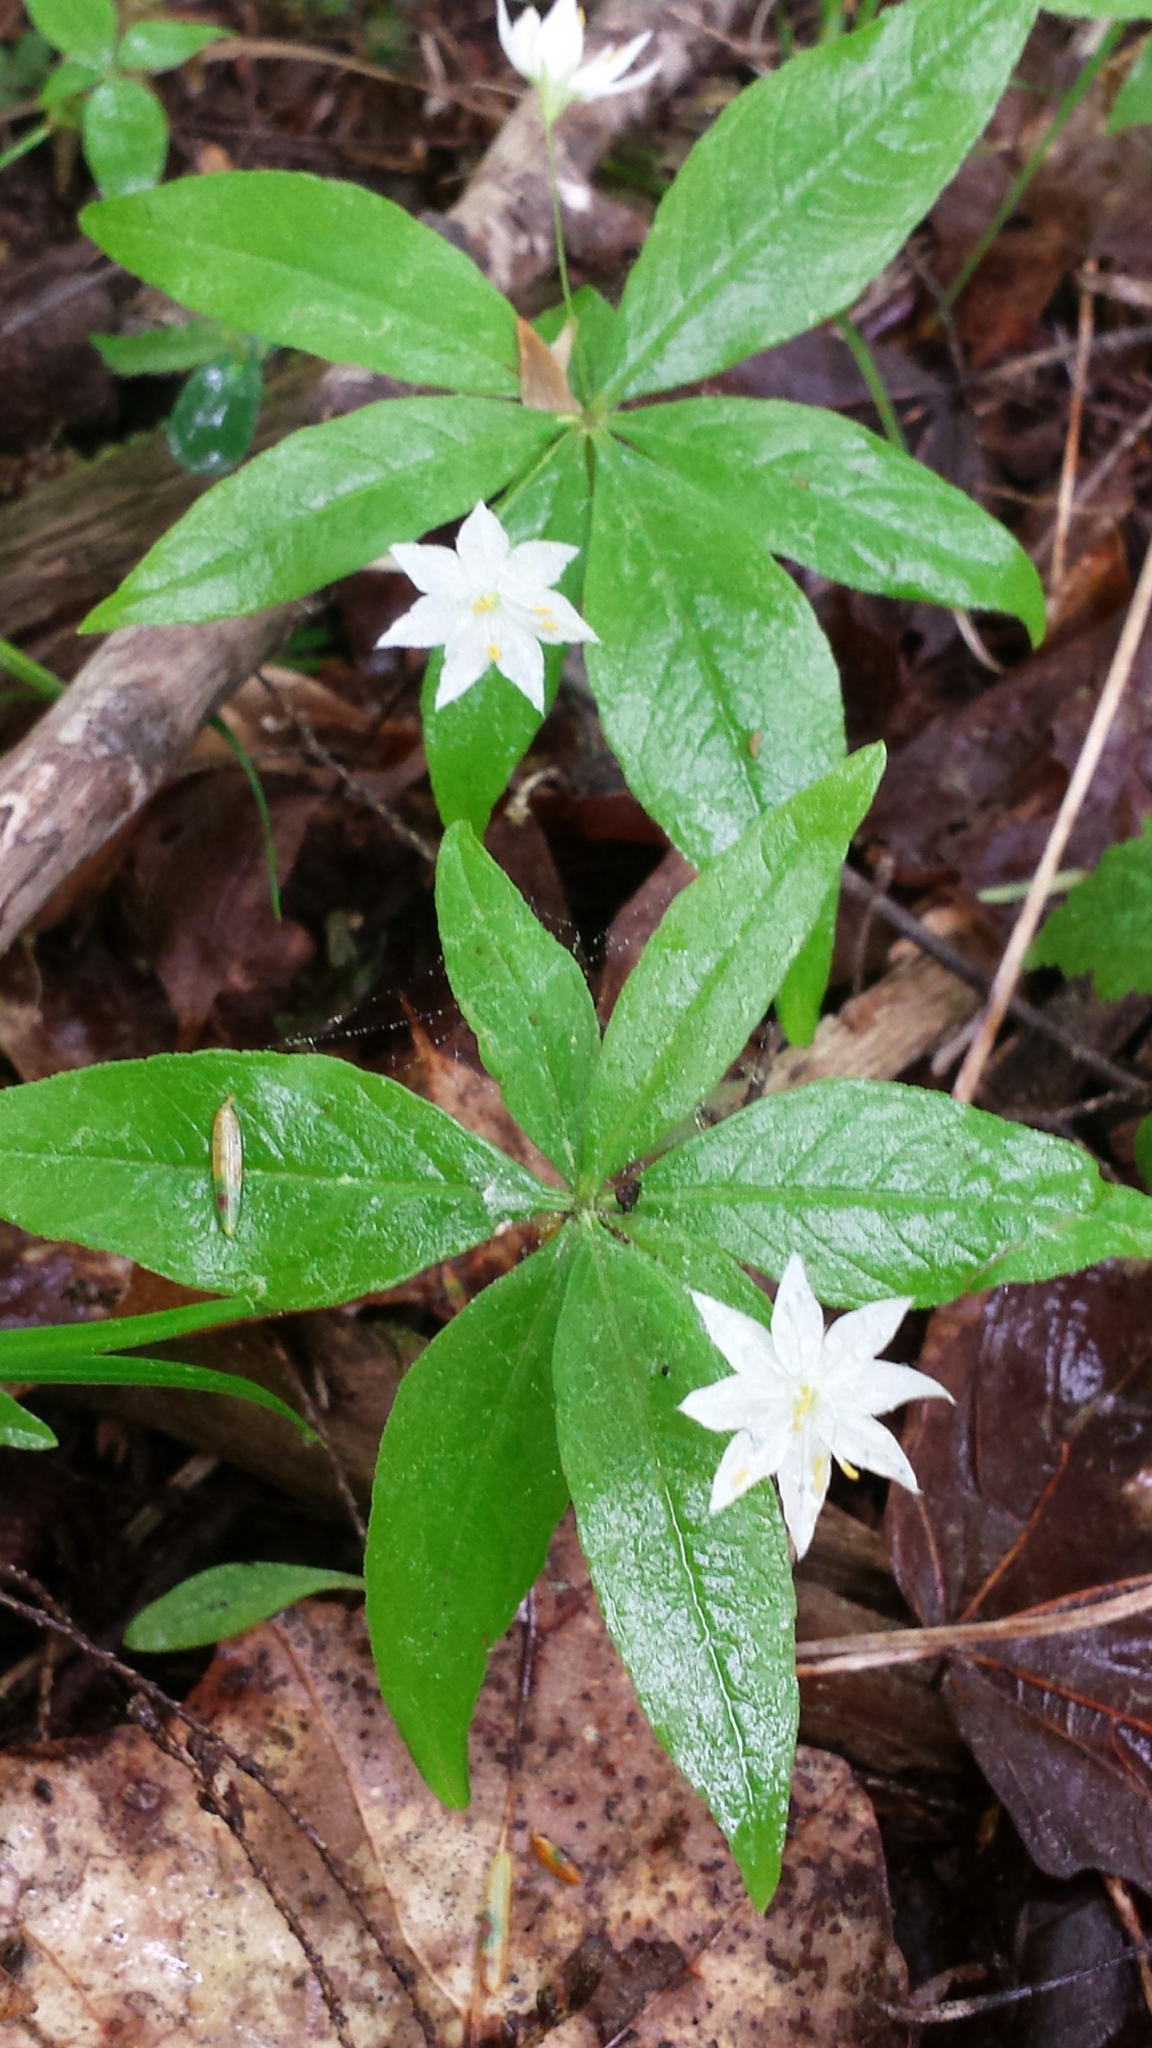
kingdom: Plantae
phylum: Tracheophyta
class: Magnoliopsida
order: Ericales
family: Primulaceae
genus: Lysimachia
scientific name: Lysimachia borealis
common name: American starflower
